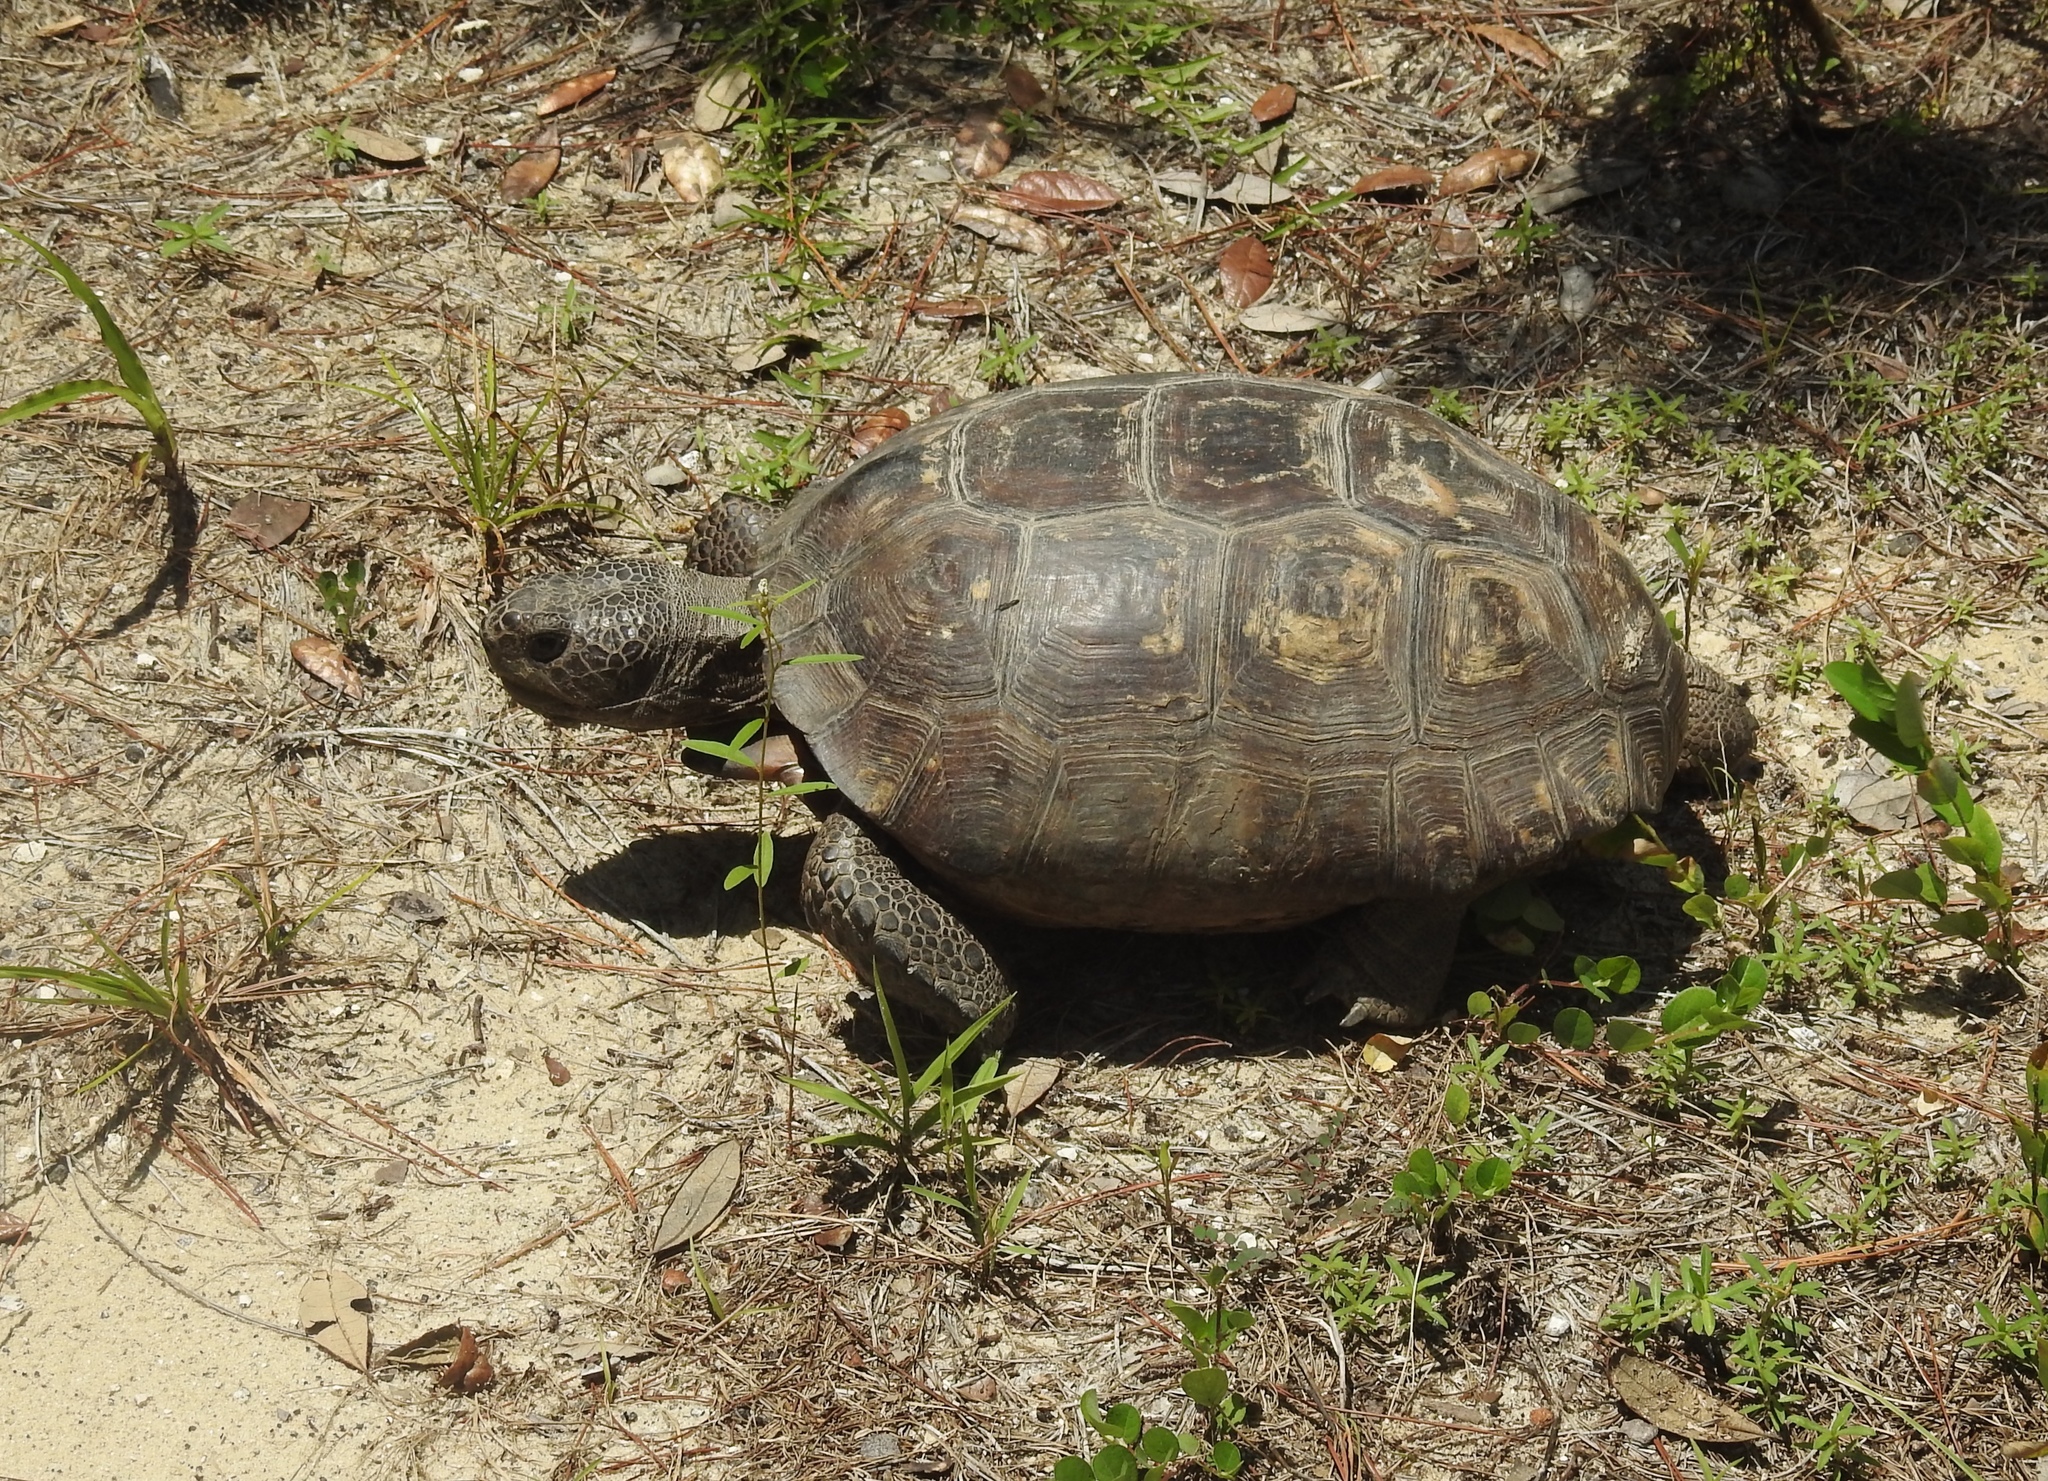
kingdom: Animalia
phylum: Chordata
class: Testudines
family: Testudinidae
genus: Gopherus
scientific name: Gopherus polyphemus
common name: Florida gopher tortoise
